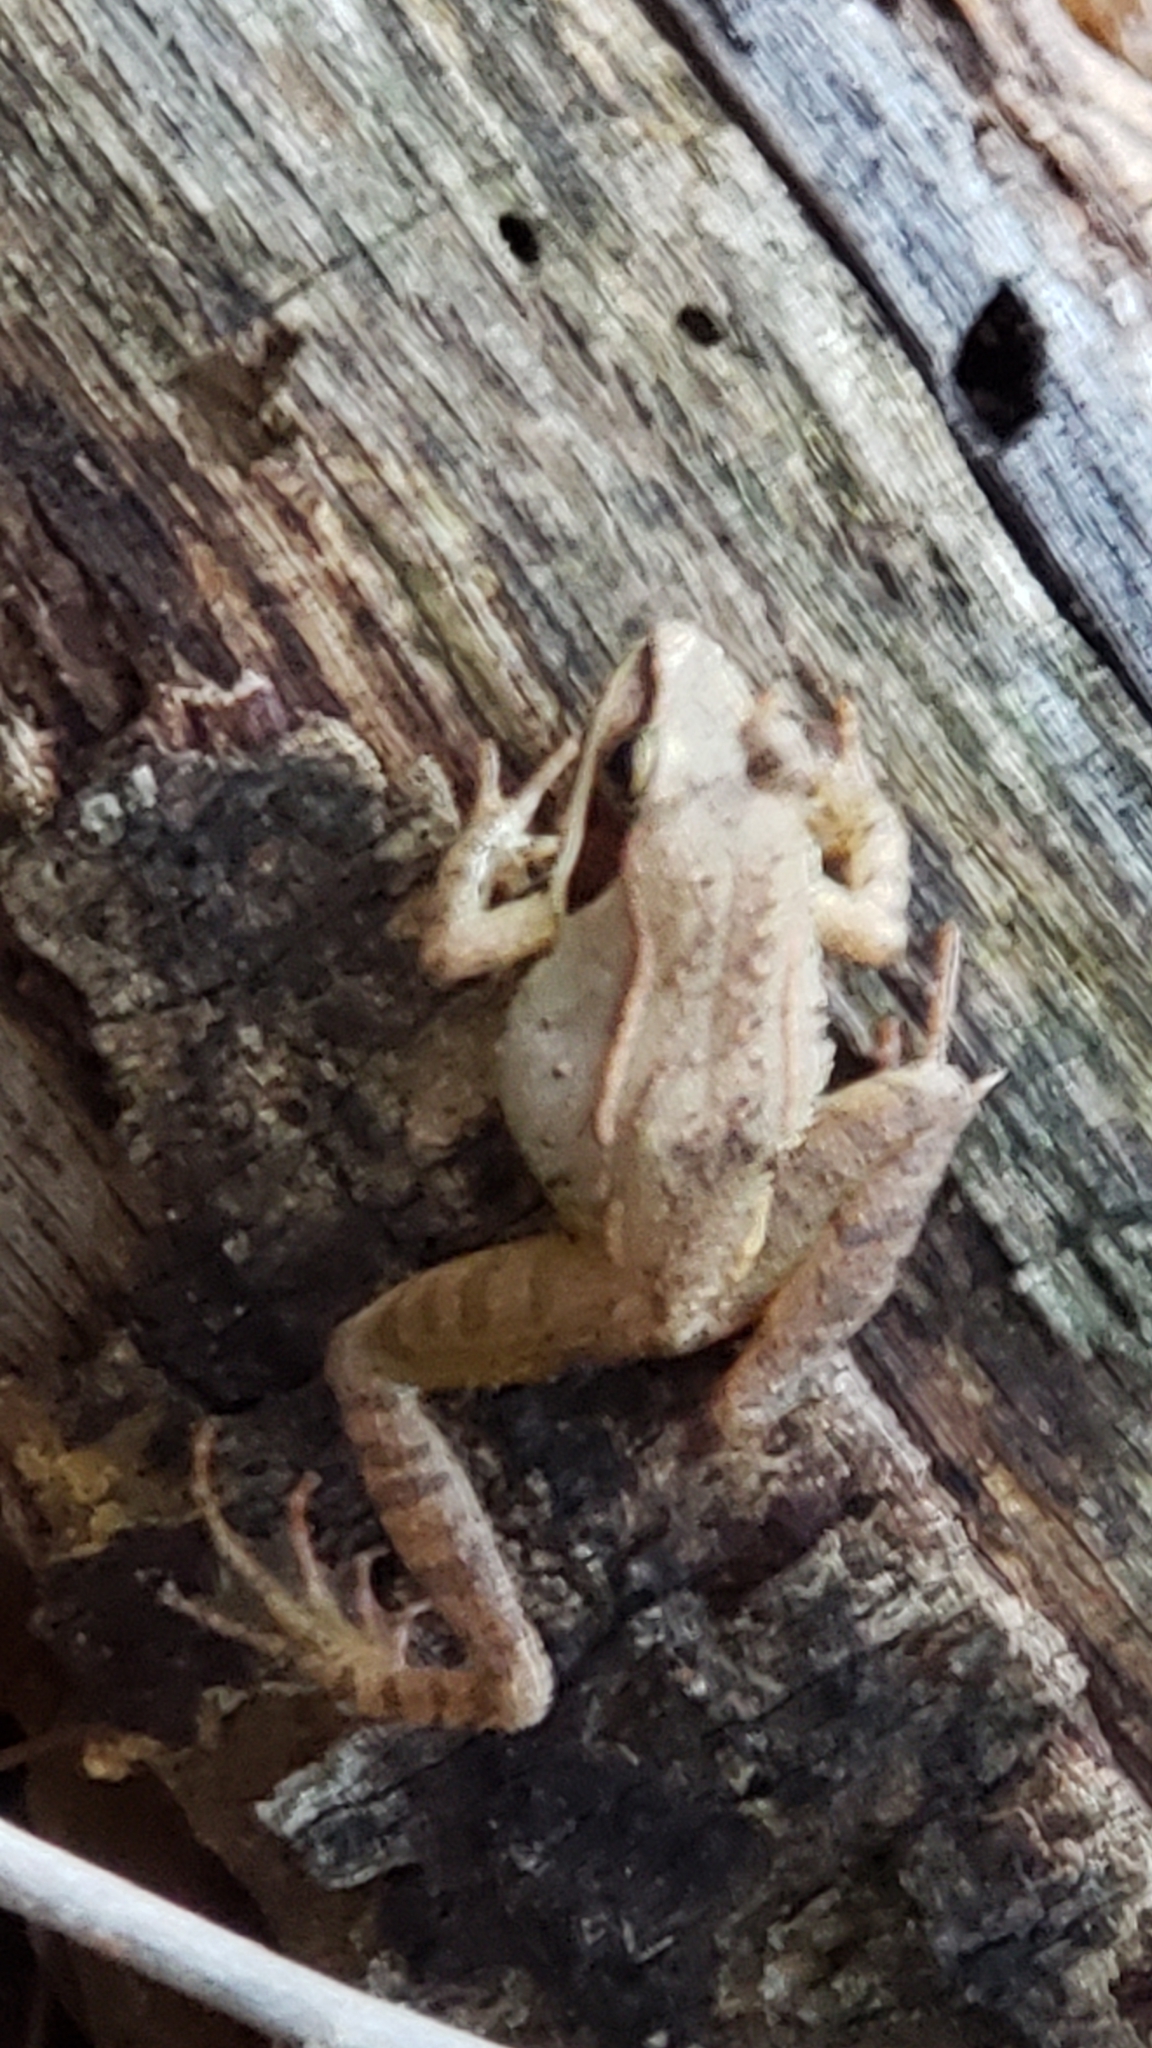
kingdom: Animalia
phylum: Chordata
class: Amphibia
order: Anura
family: Ranidae
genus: Lithobates
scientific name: Lithobates sylvaticus
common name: Wood frog
